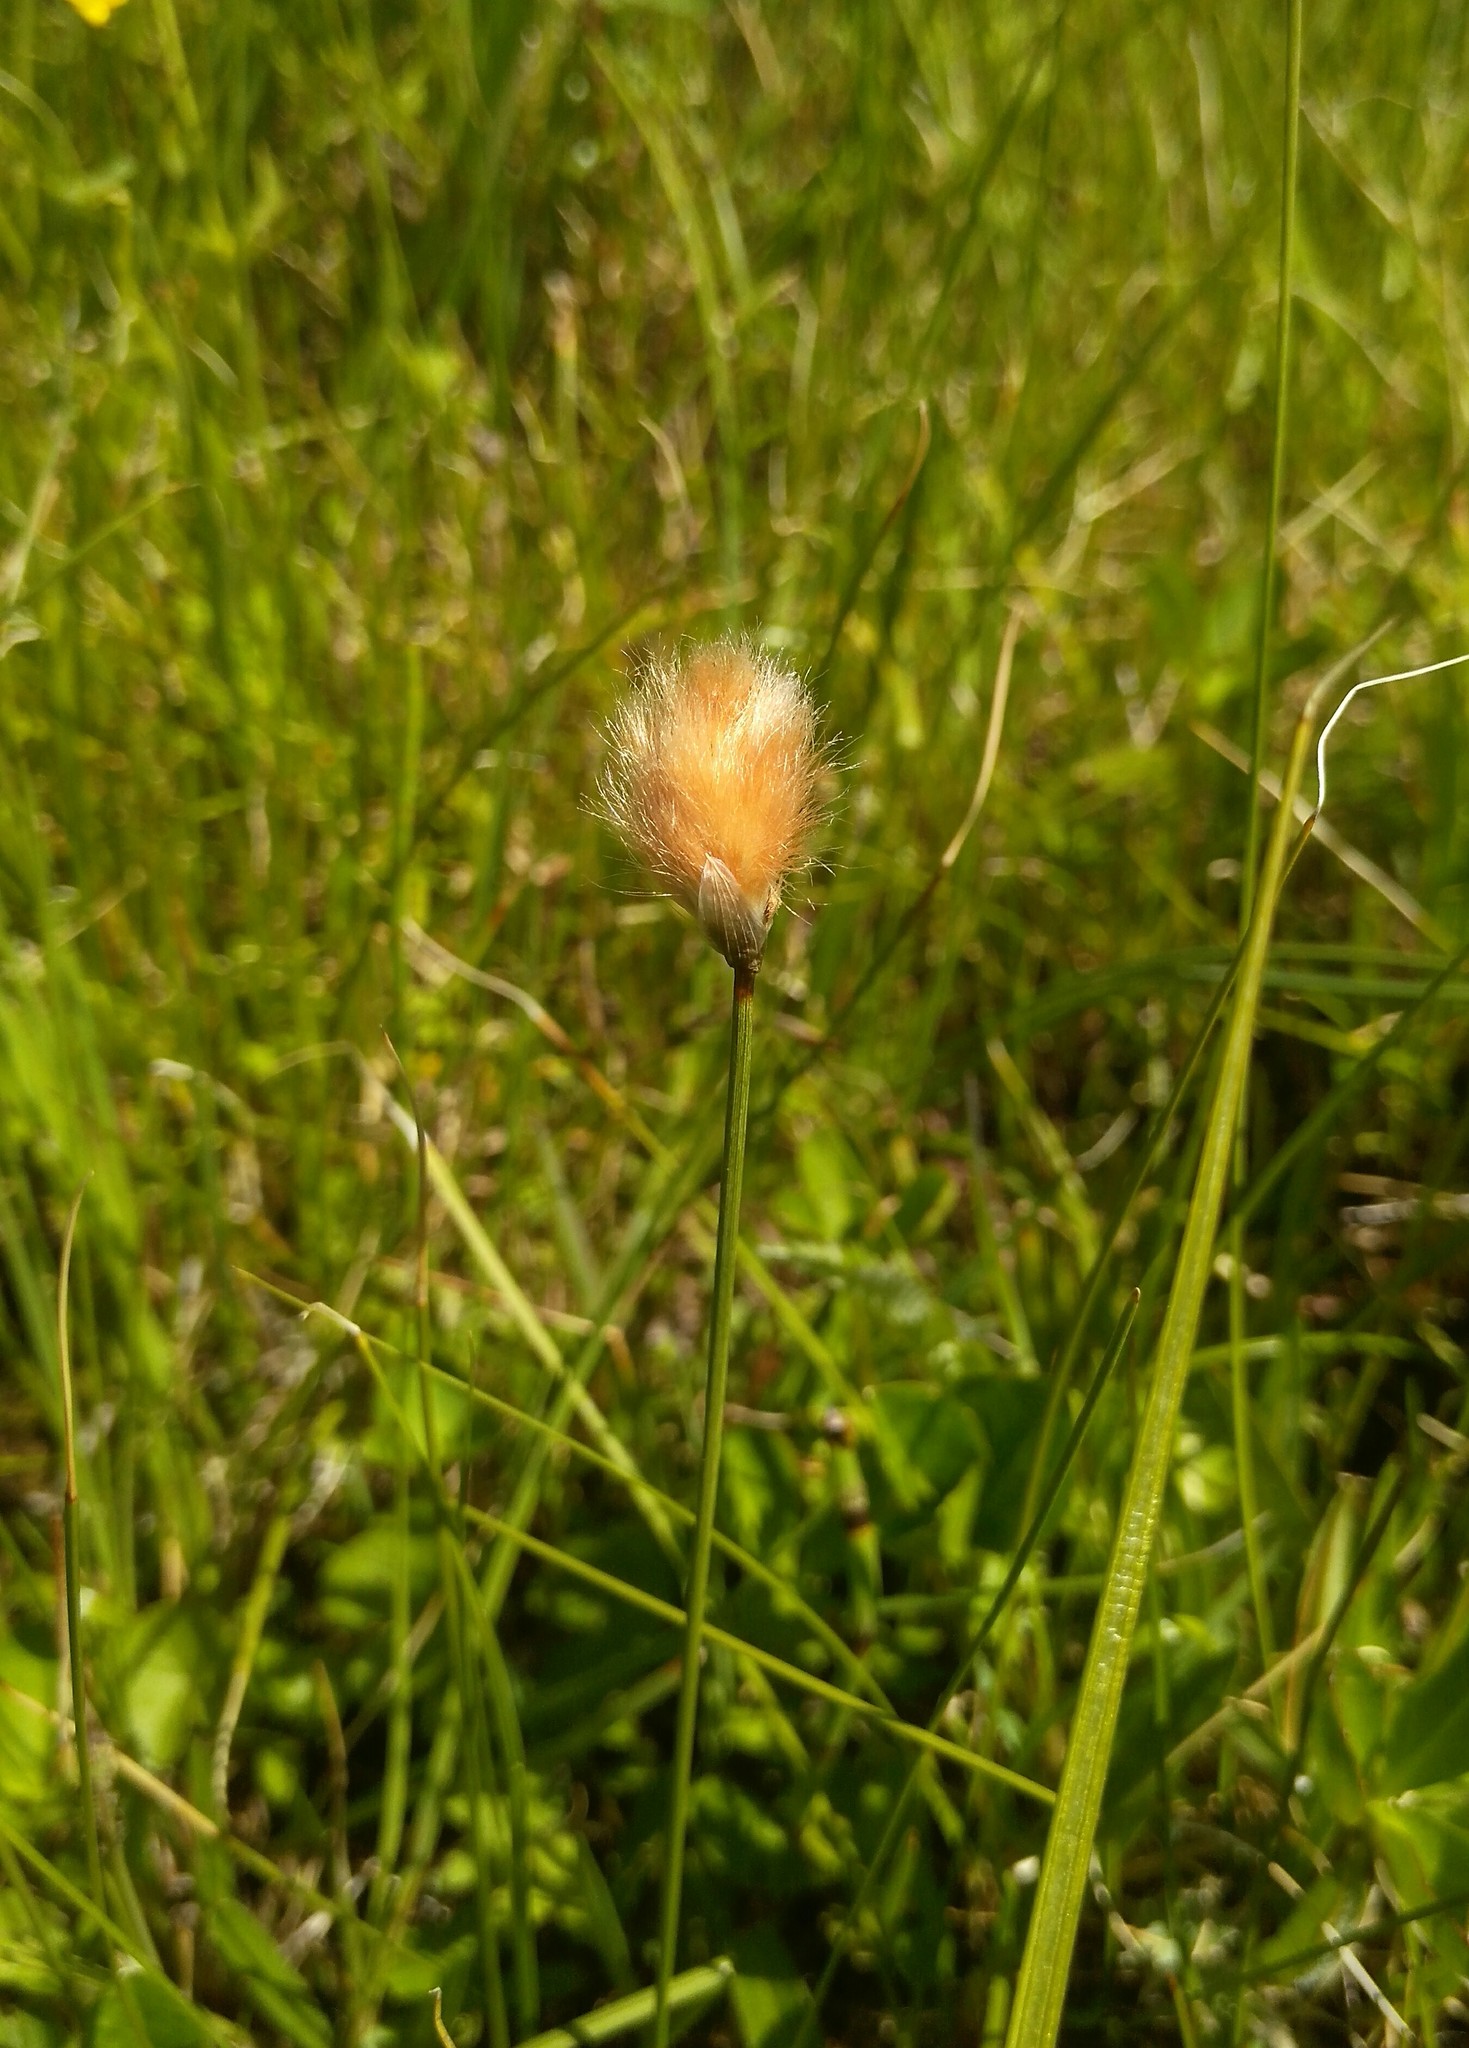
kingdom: Plantae
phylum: Tracheophyta
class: Liliopsida
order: Poales
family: Cyperaceae
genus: Eriophorum
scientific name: Eriophorum chamissonis
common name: Chamisso's cottongrass
